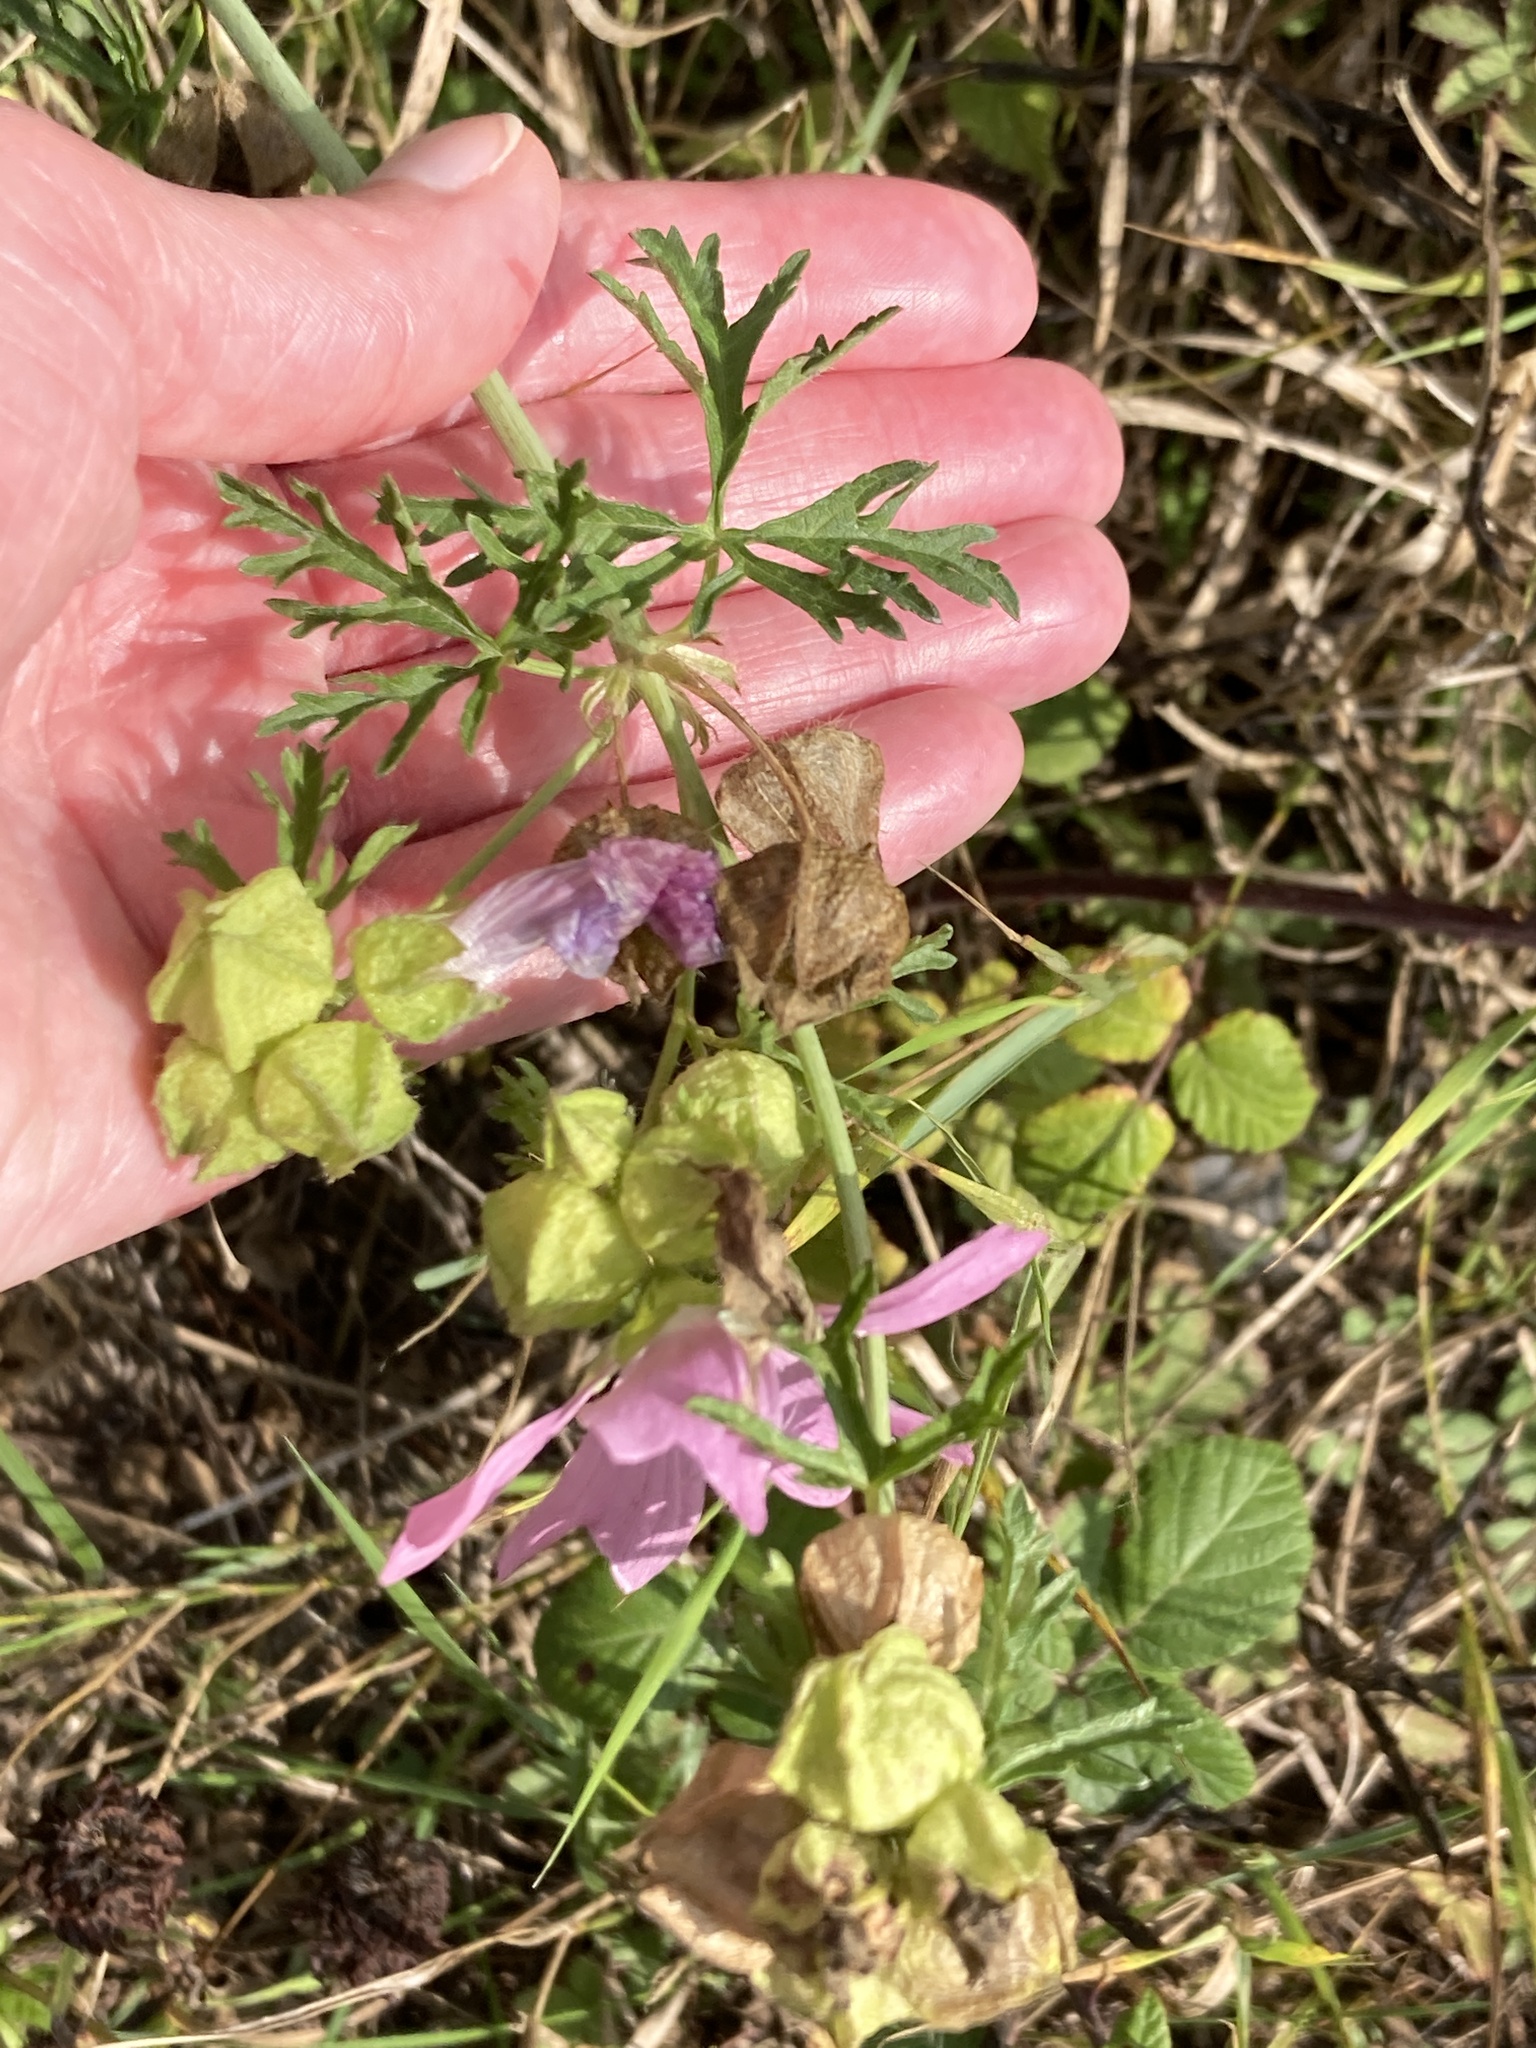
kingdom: Plantae
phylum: Tracheophyta
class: Magnoliopsida
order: Malvales
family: Malvaceae
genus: Malva
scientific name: Malva moschata
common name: Musk mallow
